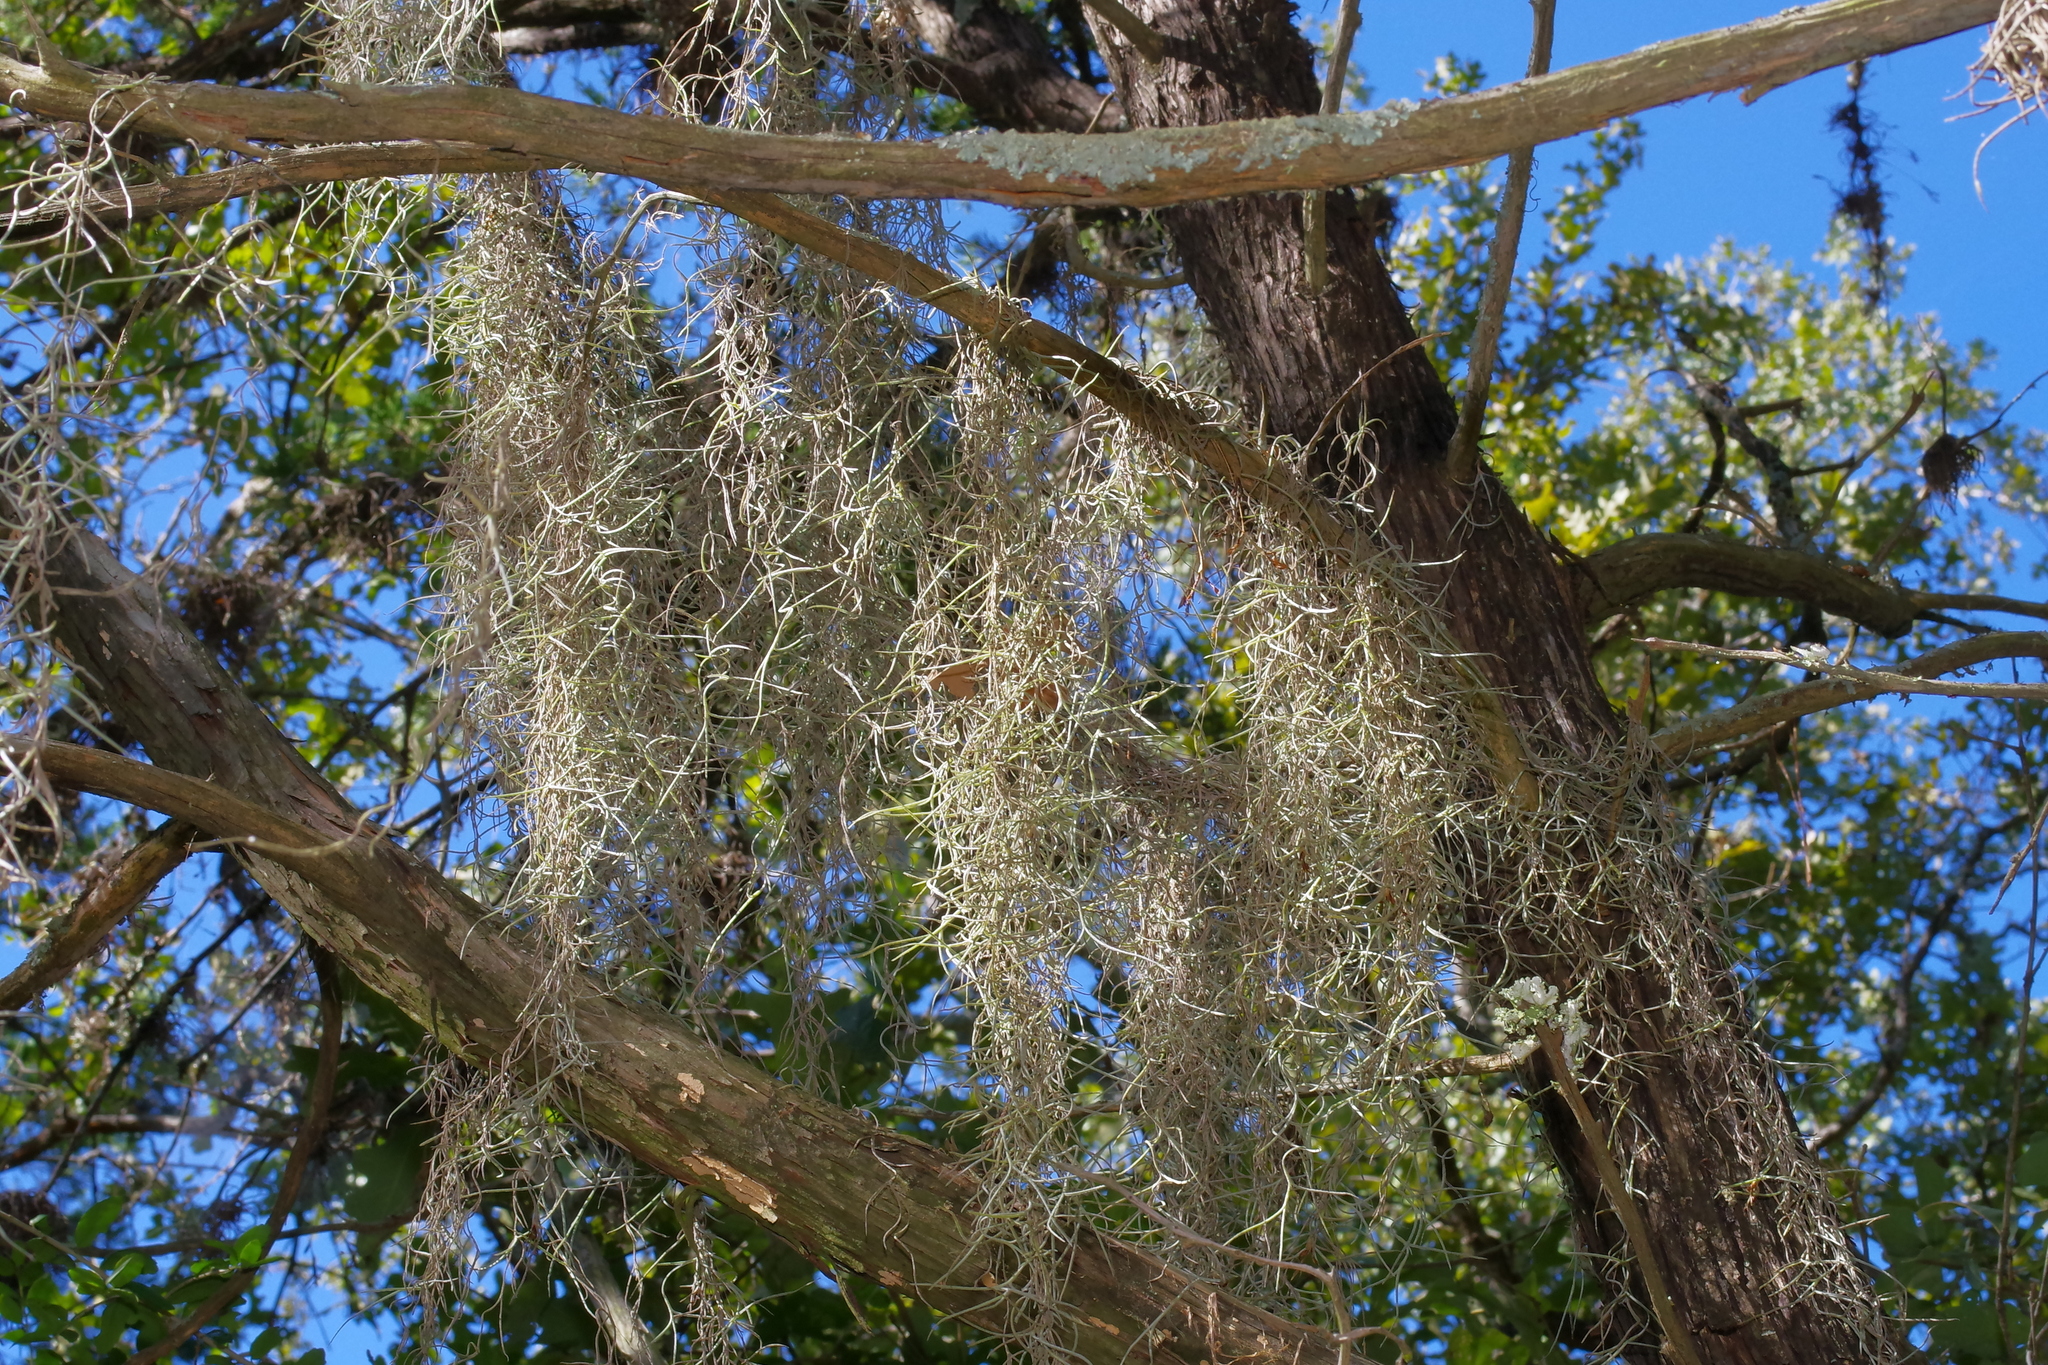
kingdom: Plantae
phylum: Tracheophyta
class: Liliopsida
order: Poales
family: Bromeliaceae
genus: Tillandsia
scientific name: Tillandsia usneoides
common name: Spanish moss
